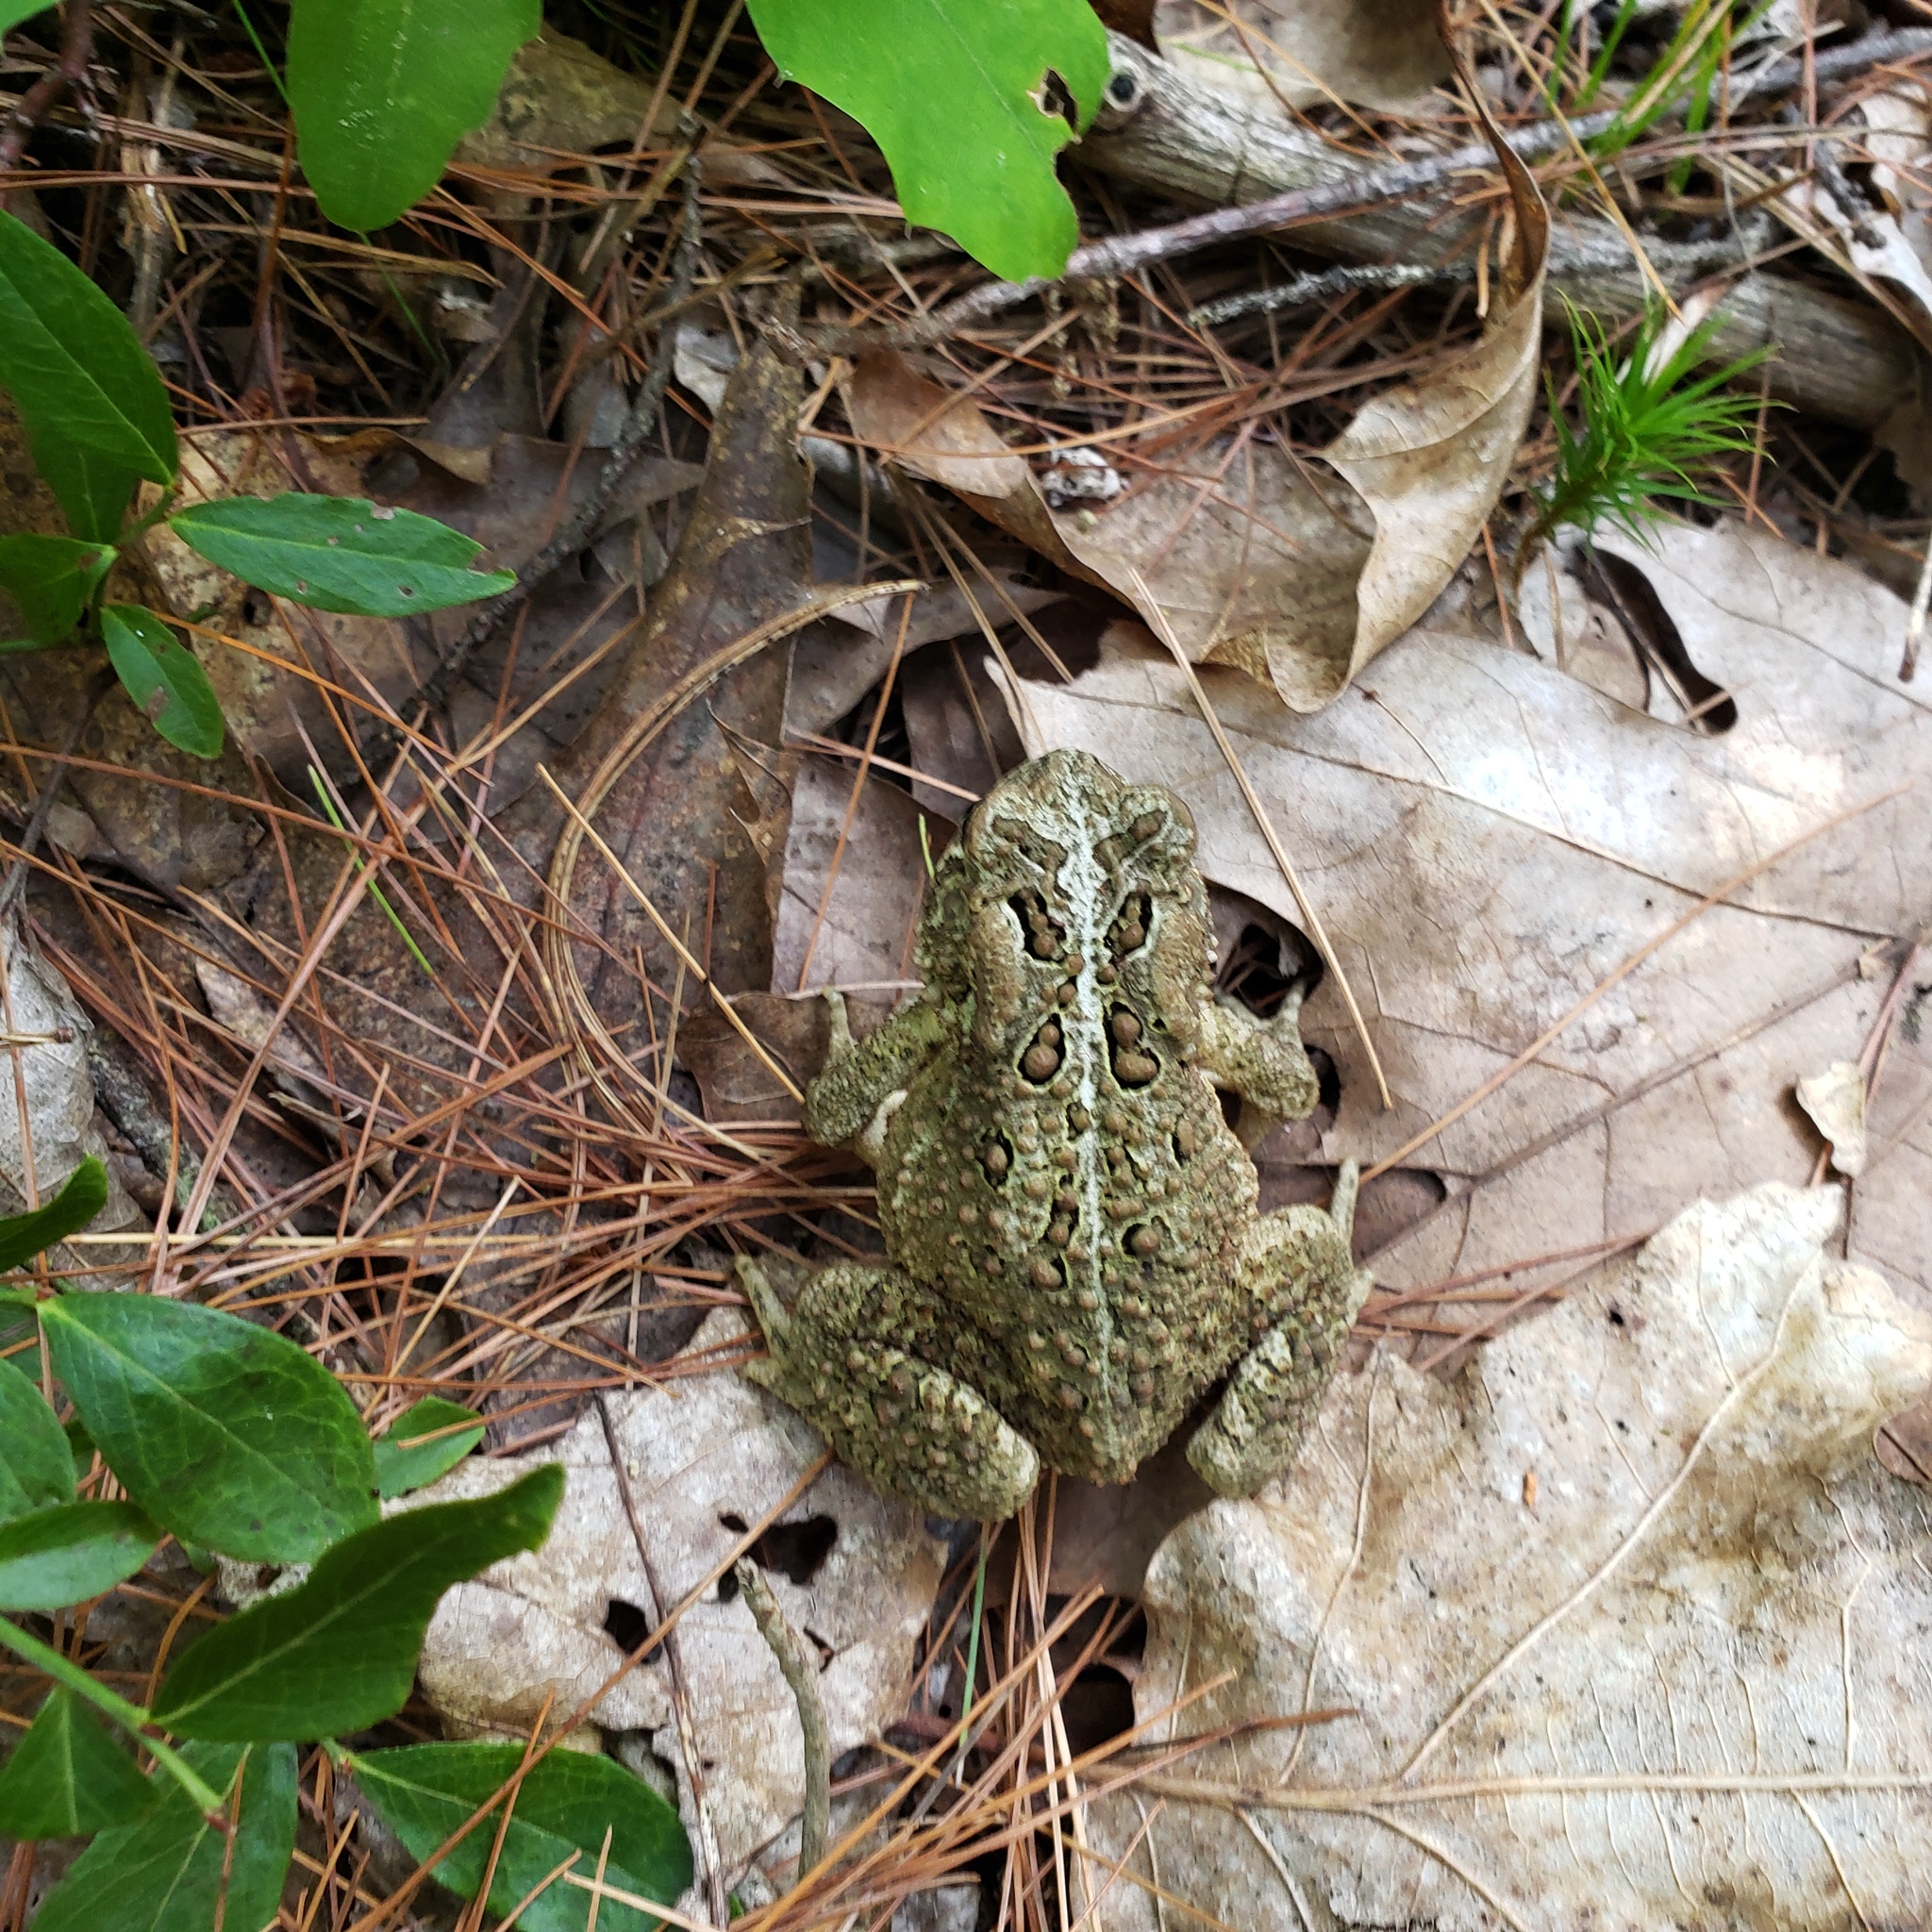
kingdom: Animalia
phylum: Chordata
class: Amphibia
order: Anura
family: Bufonidae
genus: Anaxyrus
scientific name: Anaxyrus americanus
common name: American toad
